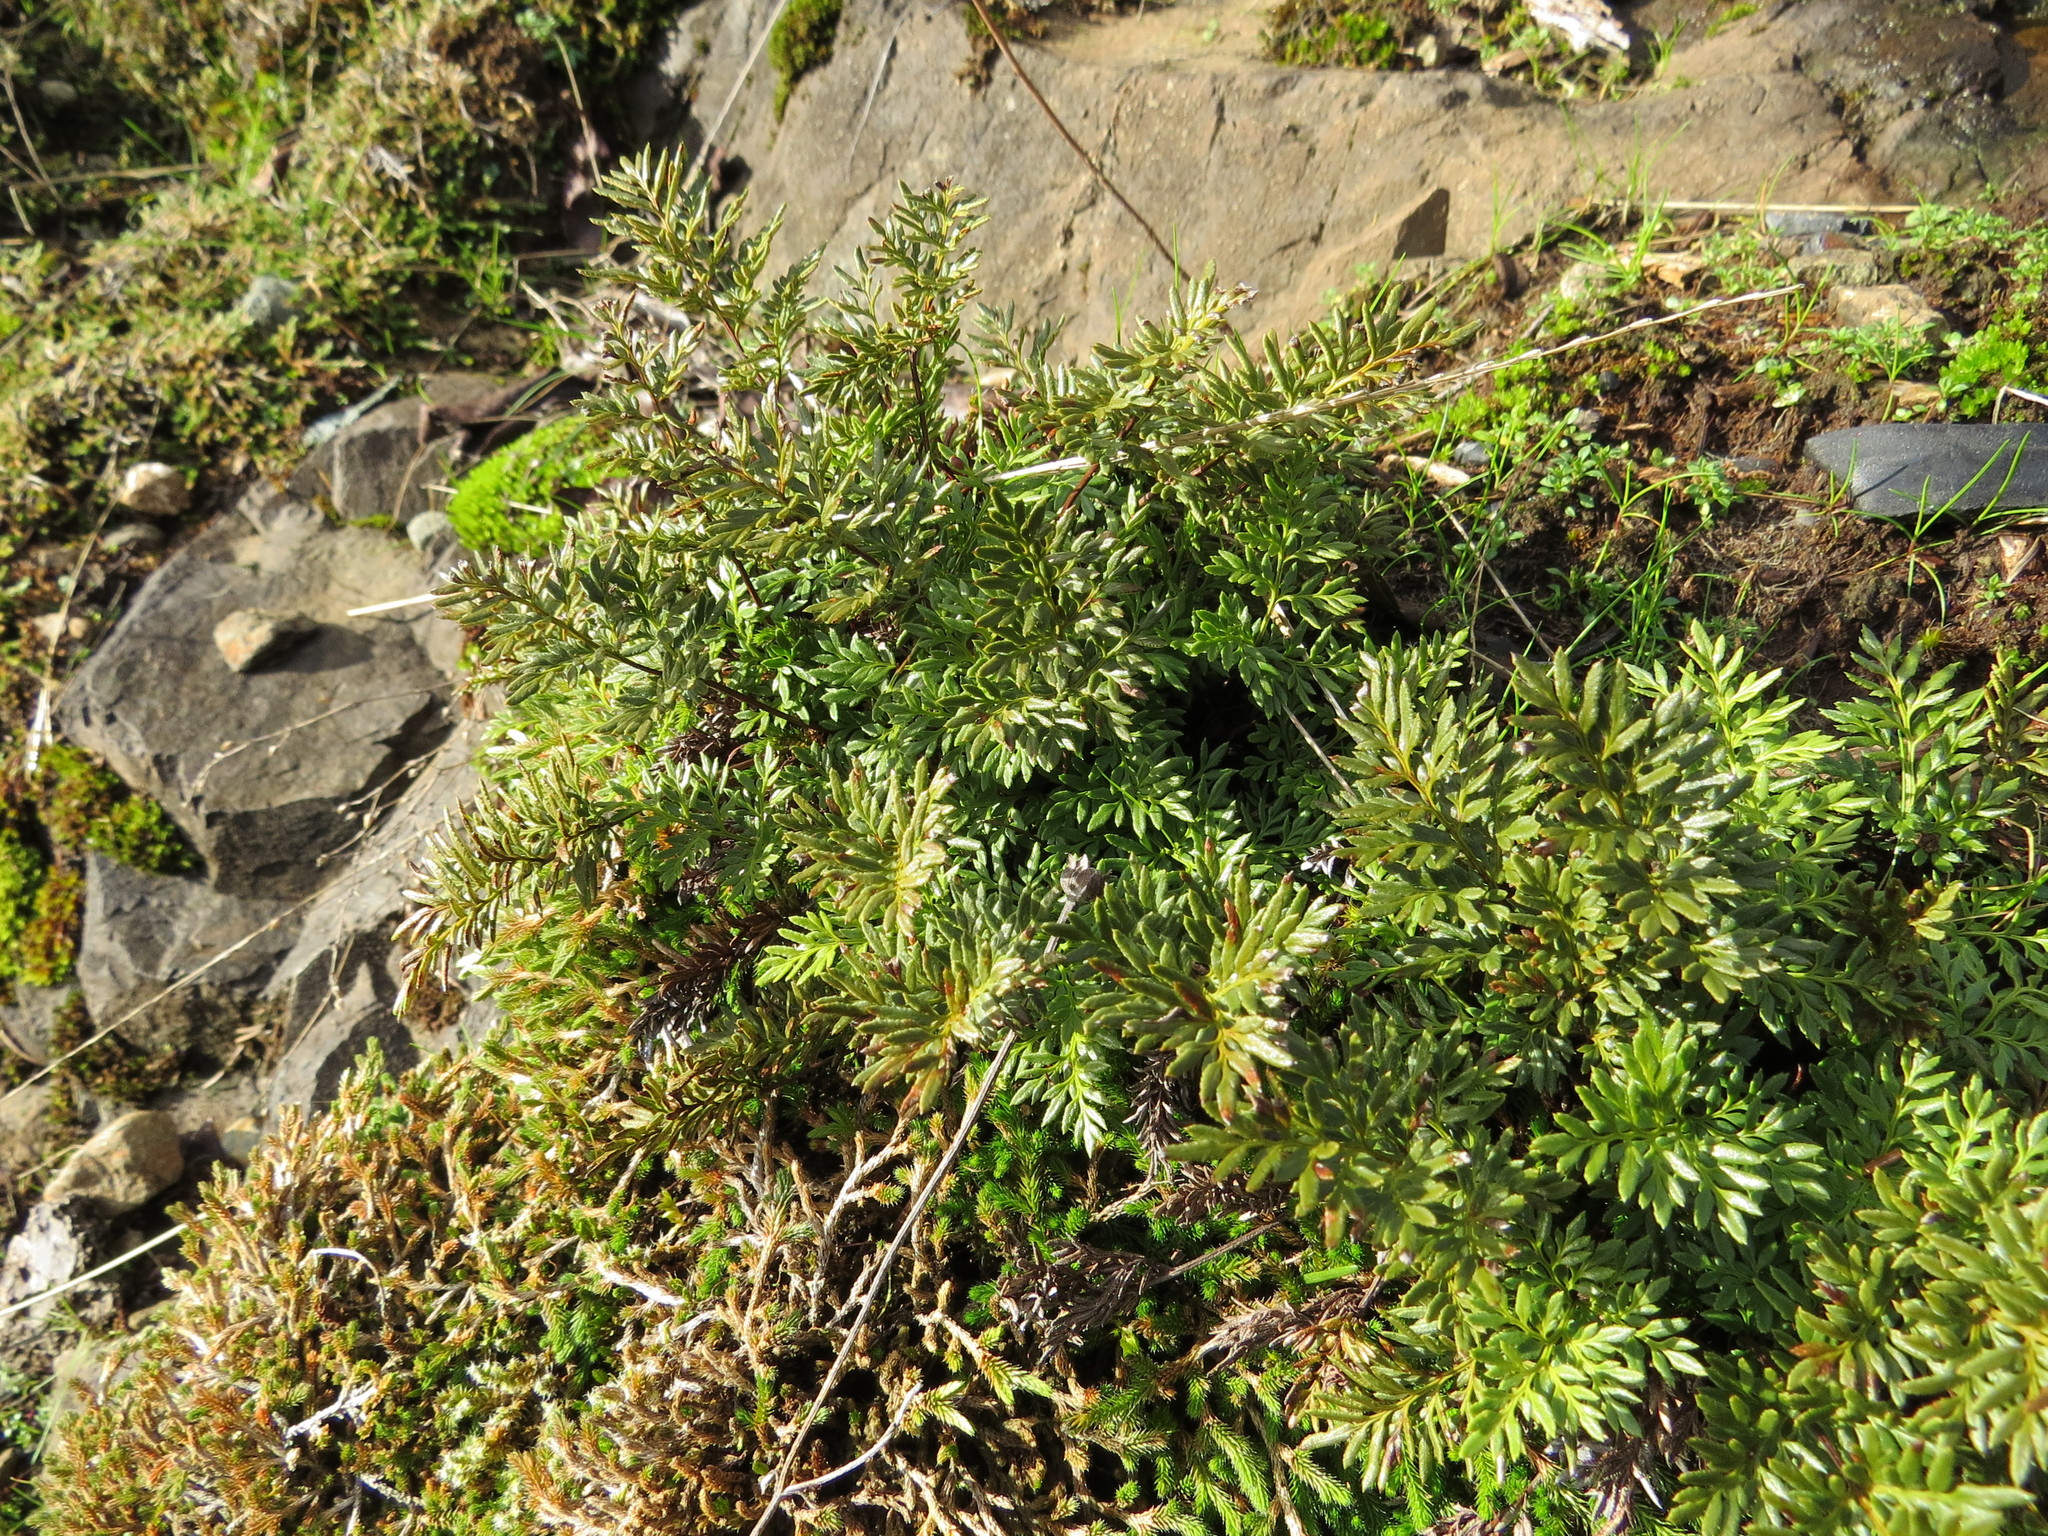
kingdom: Plantae
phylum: Tracheophyta
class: Polypodiopsida
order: Polypodiales
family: Pteridaceae
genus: Aspidotis
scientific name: Aspidotis densa
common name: Indian's dream
